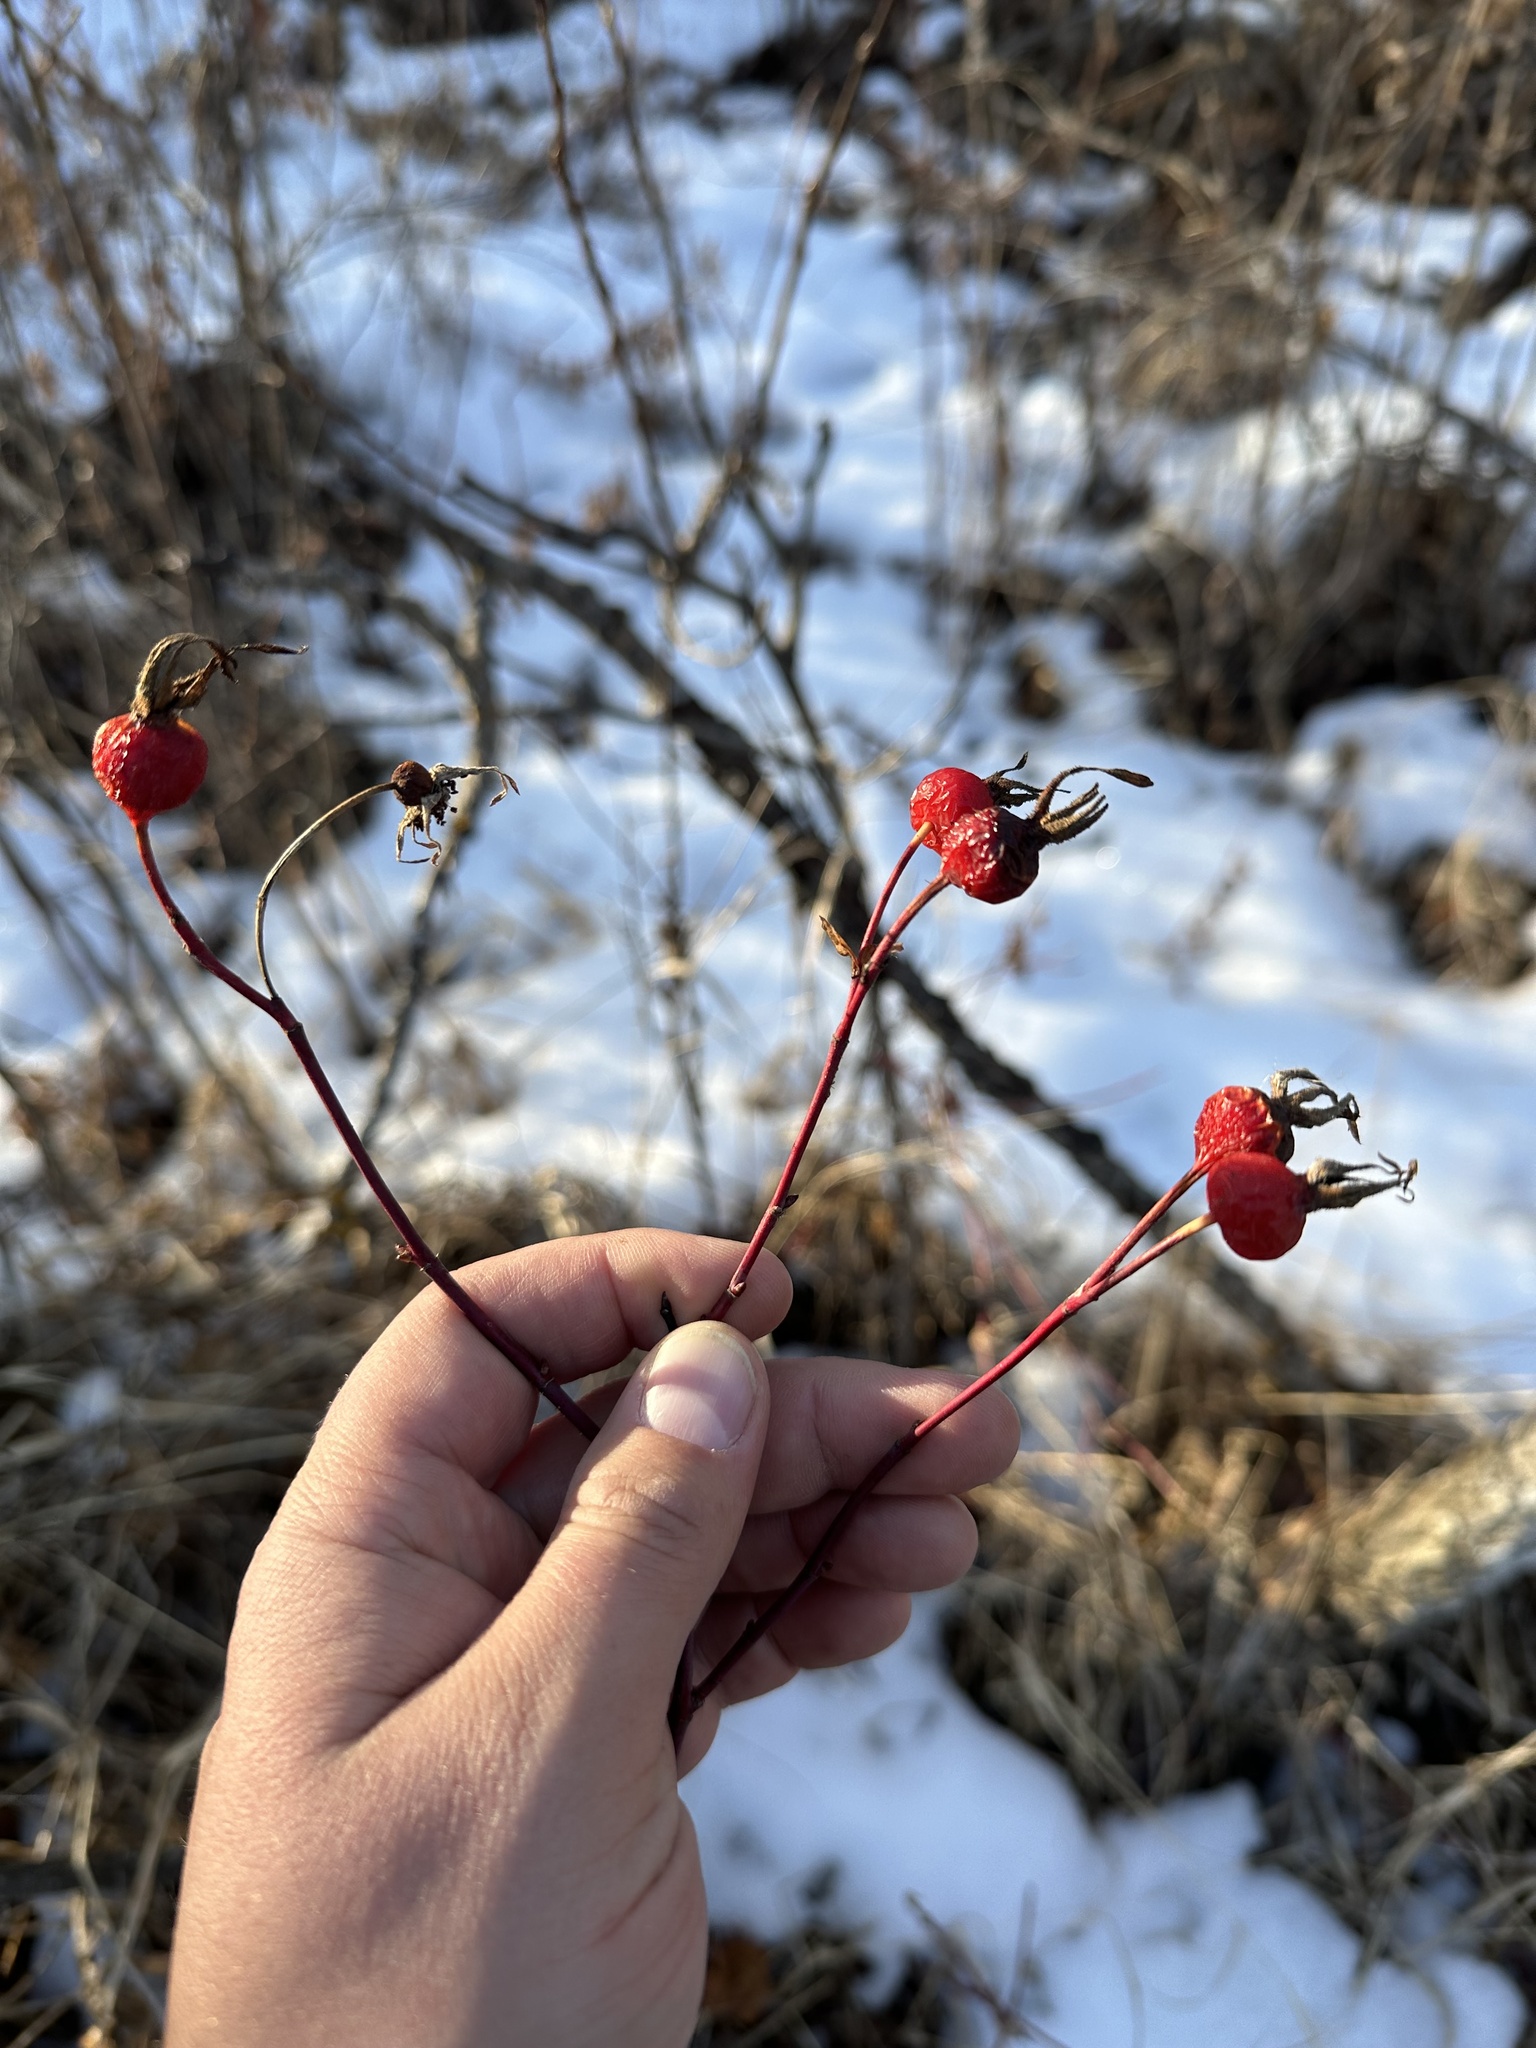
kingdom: Plantae
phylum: Tracheophyta
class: Magnoliopsida
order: Rosales
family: Rosaceae
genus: Rosa
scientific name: Rosa woodsii
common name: Woods's rose
